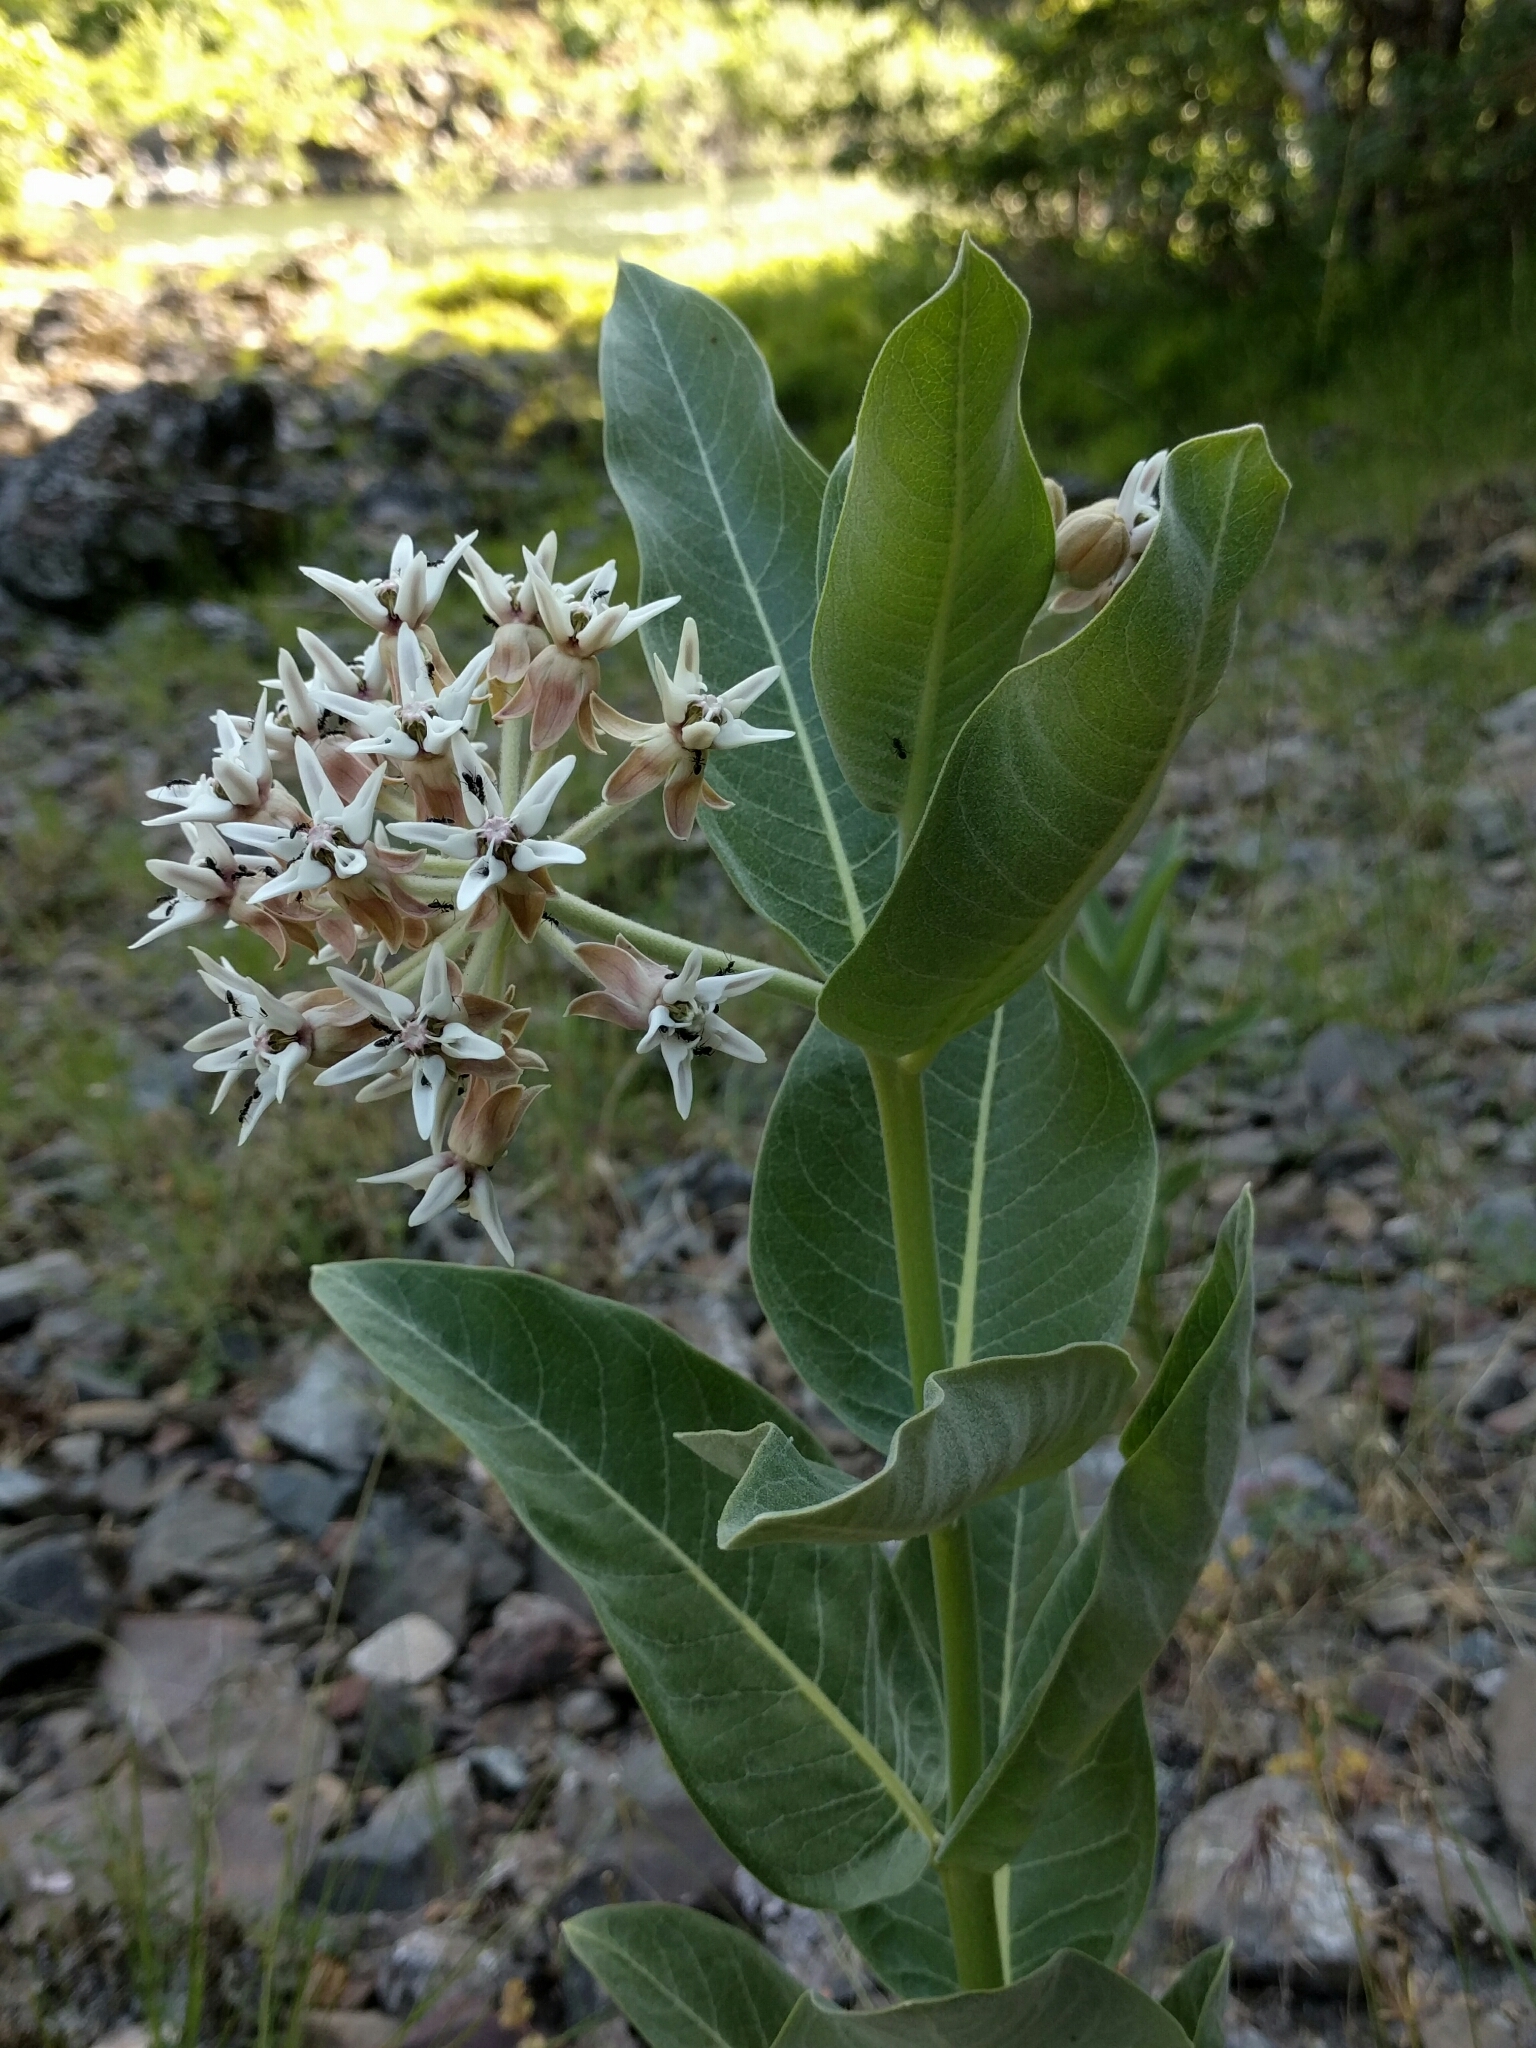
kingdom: Plantae
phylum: Tracheophyta
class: Magnoliopsida
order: Gentianales
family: Apocynaceae
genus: Asclepias
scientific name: Asclepias speciosa
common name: Showy milkweed
